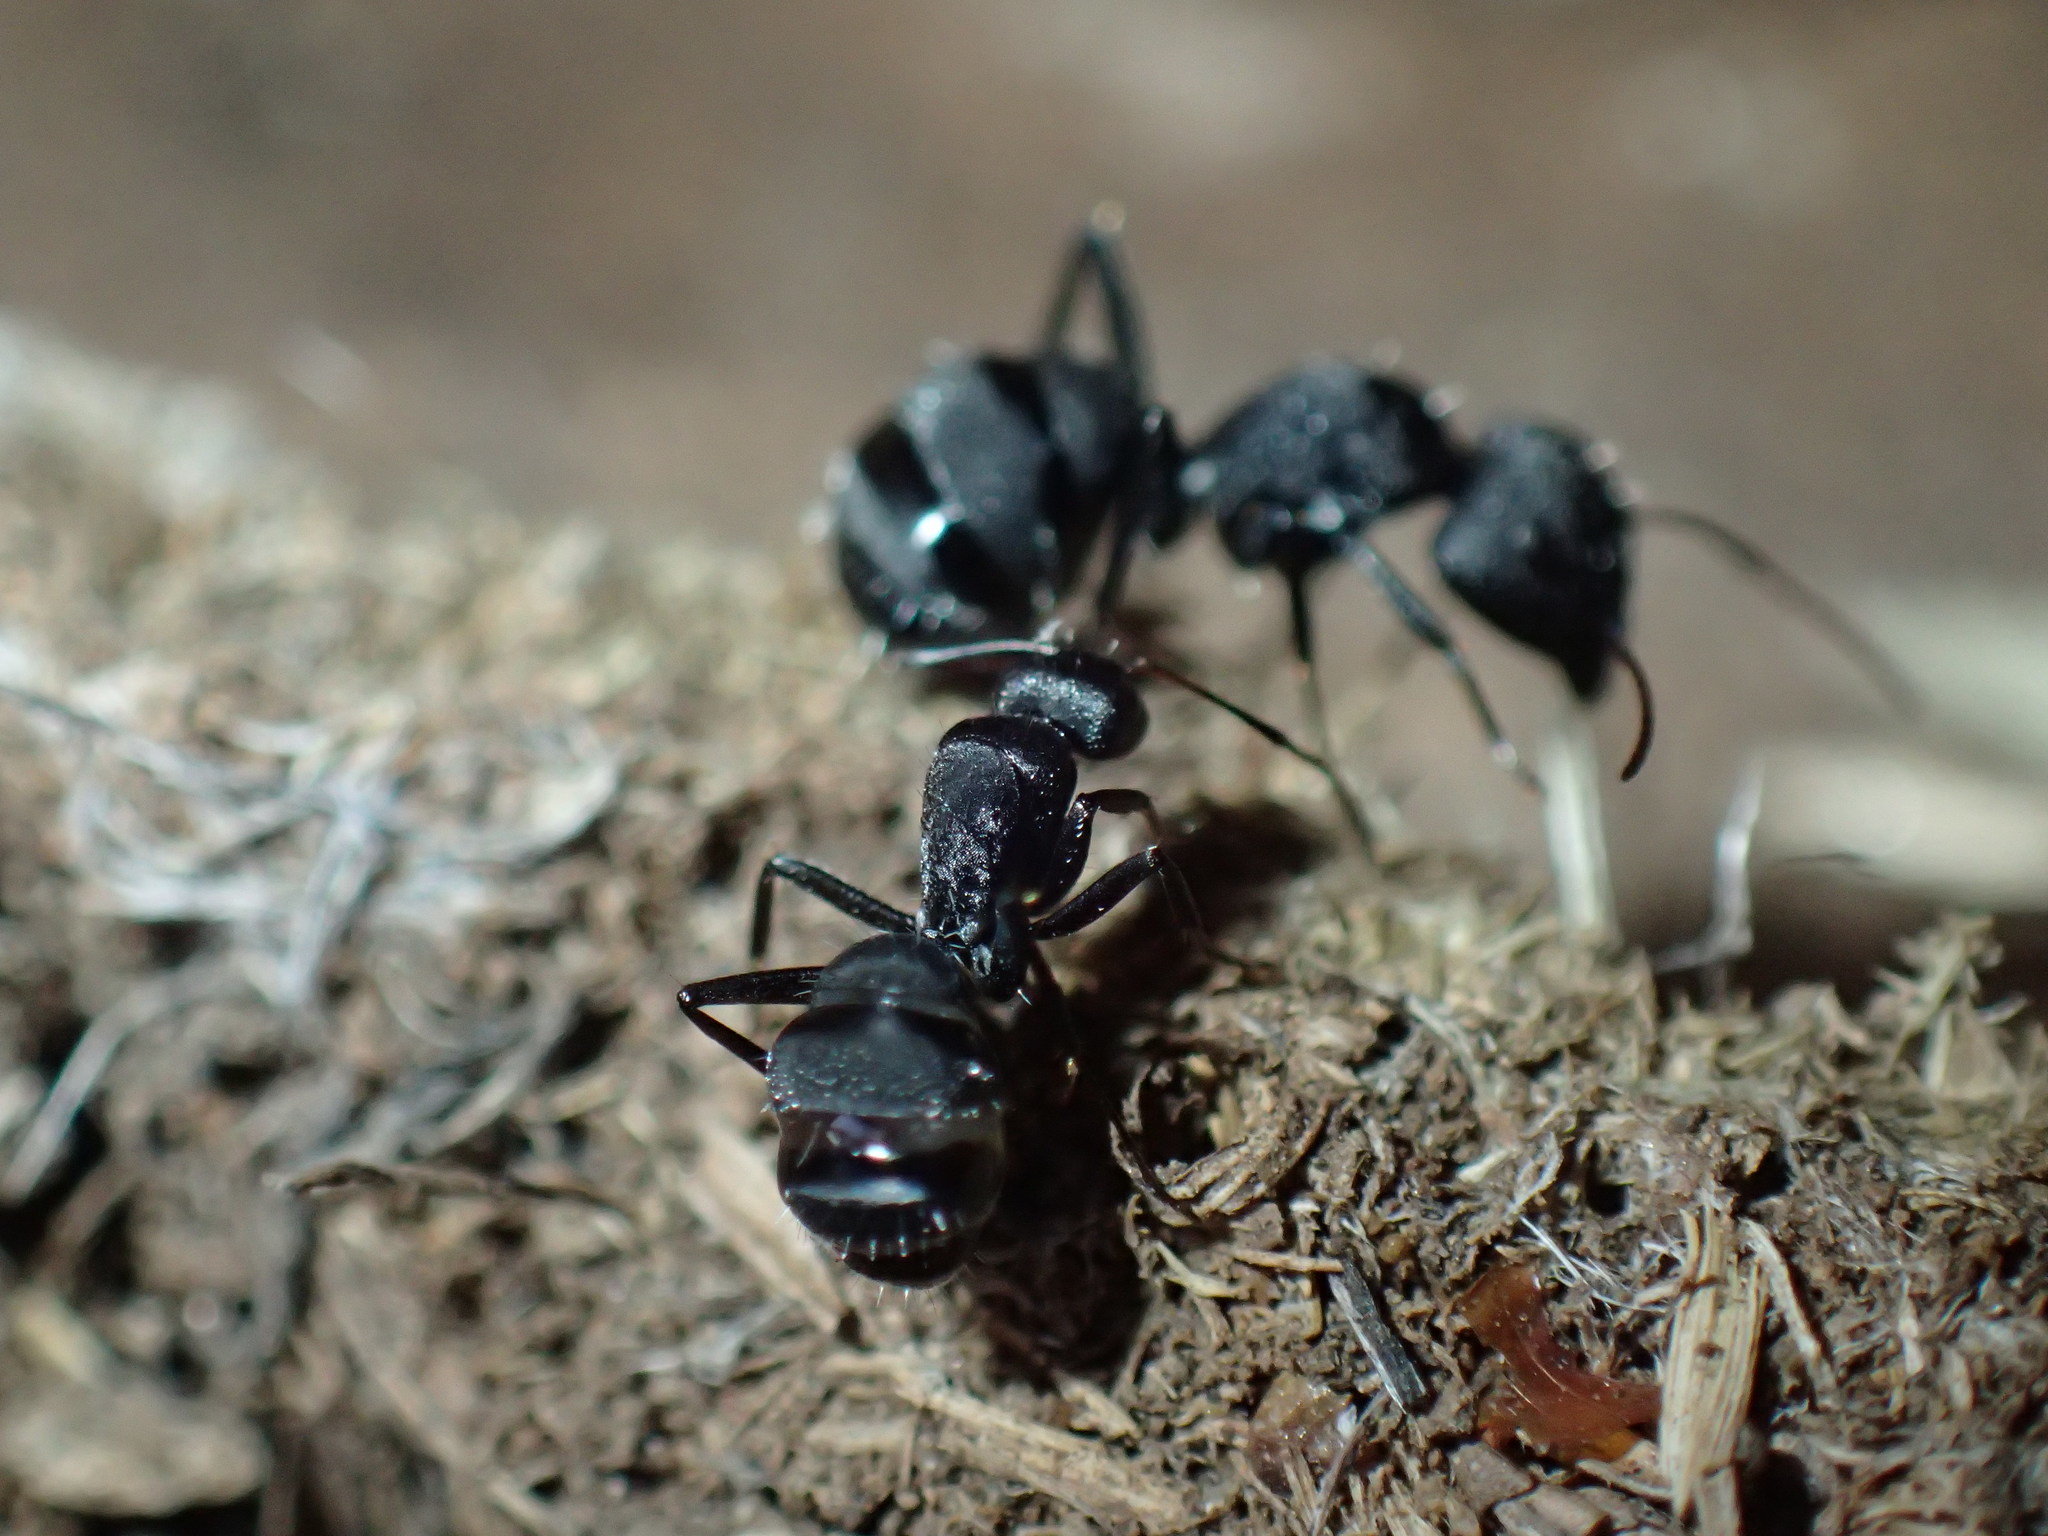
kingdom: Animalia
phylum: Arthropoda
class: Insecta
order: Hymenoptera
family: Formicidae
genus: Camponotus
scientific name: Camponotus errabundus
